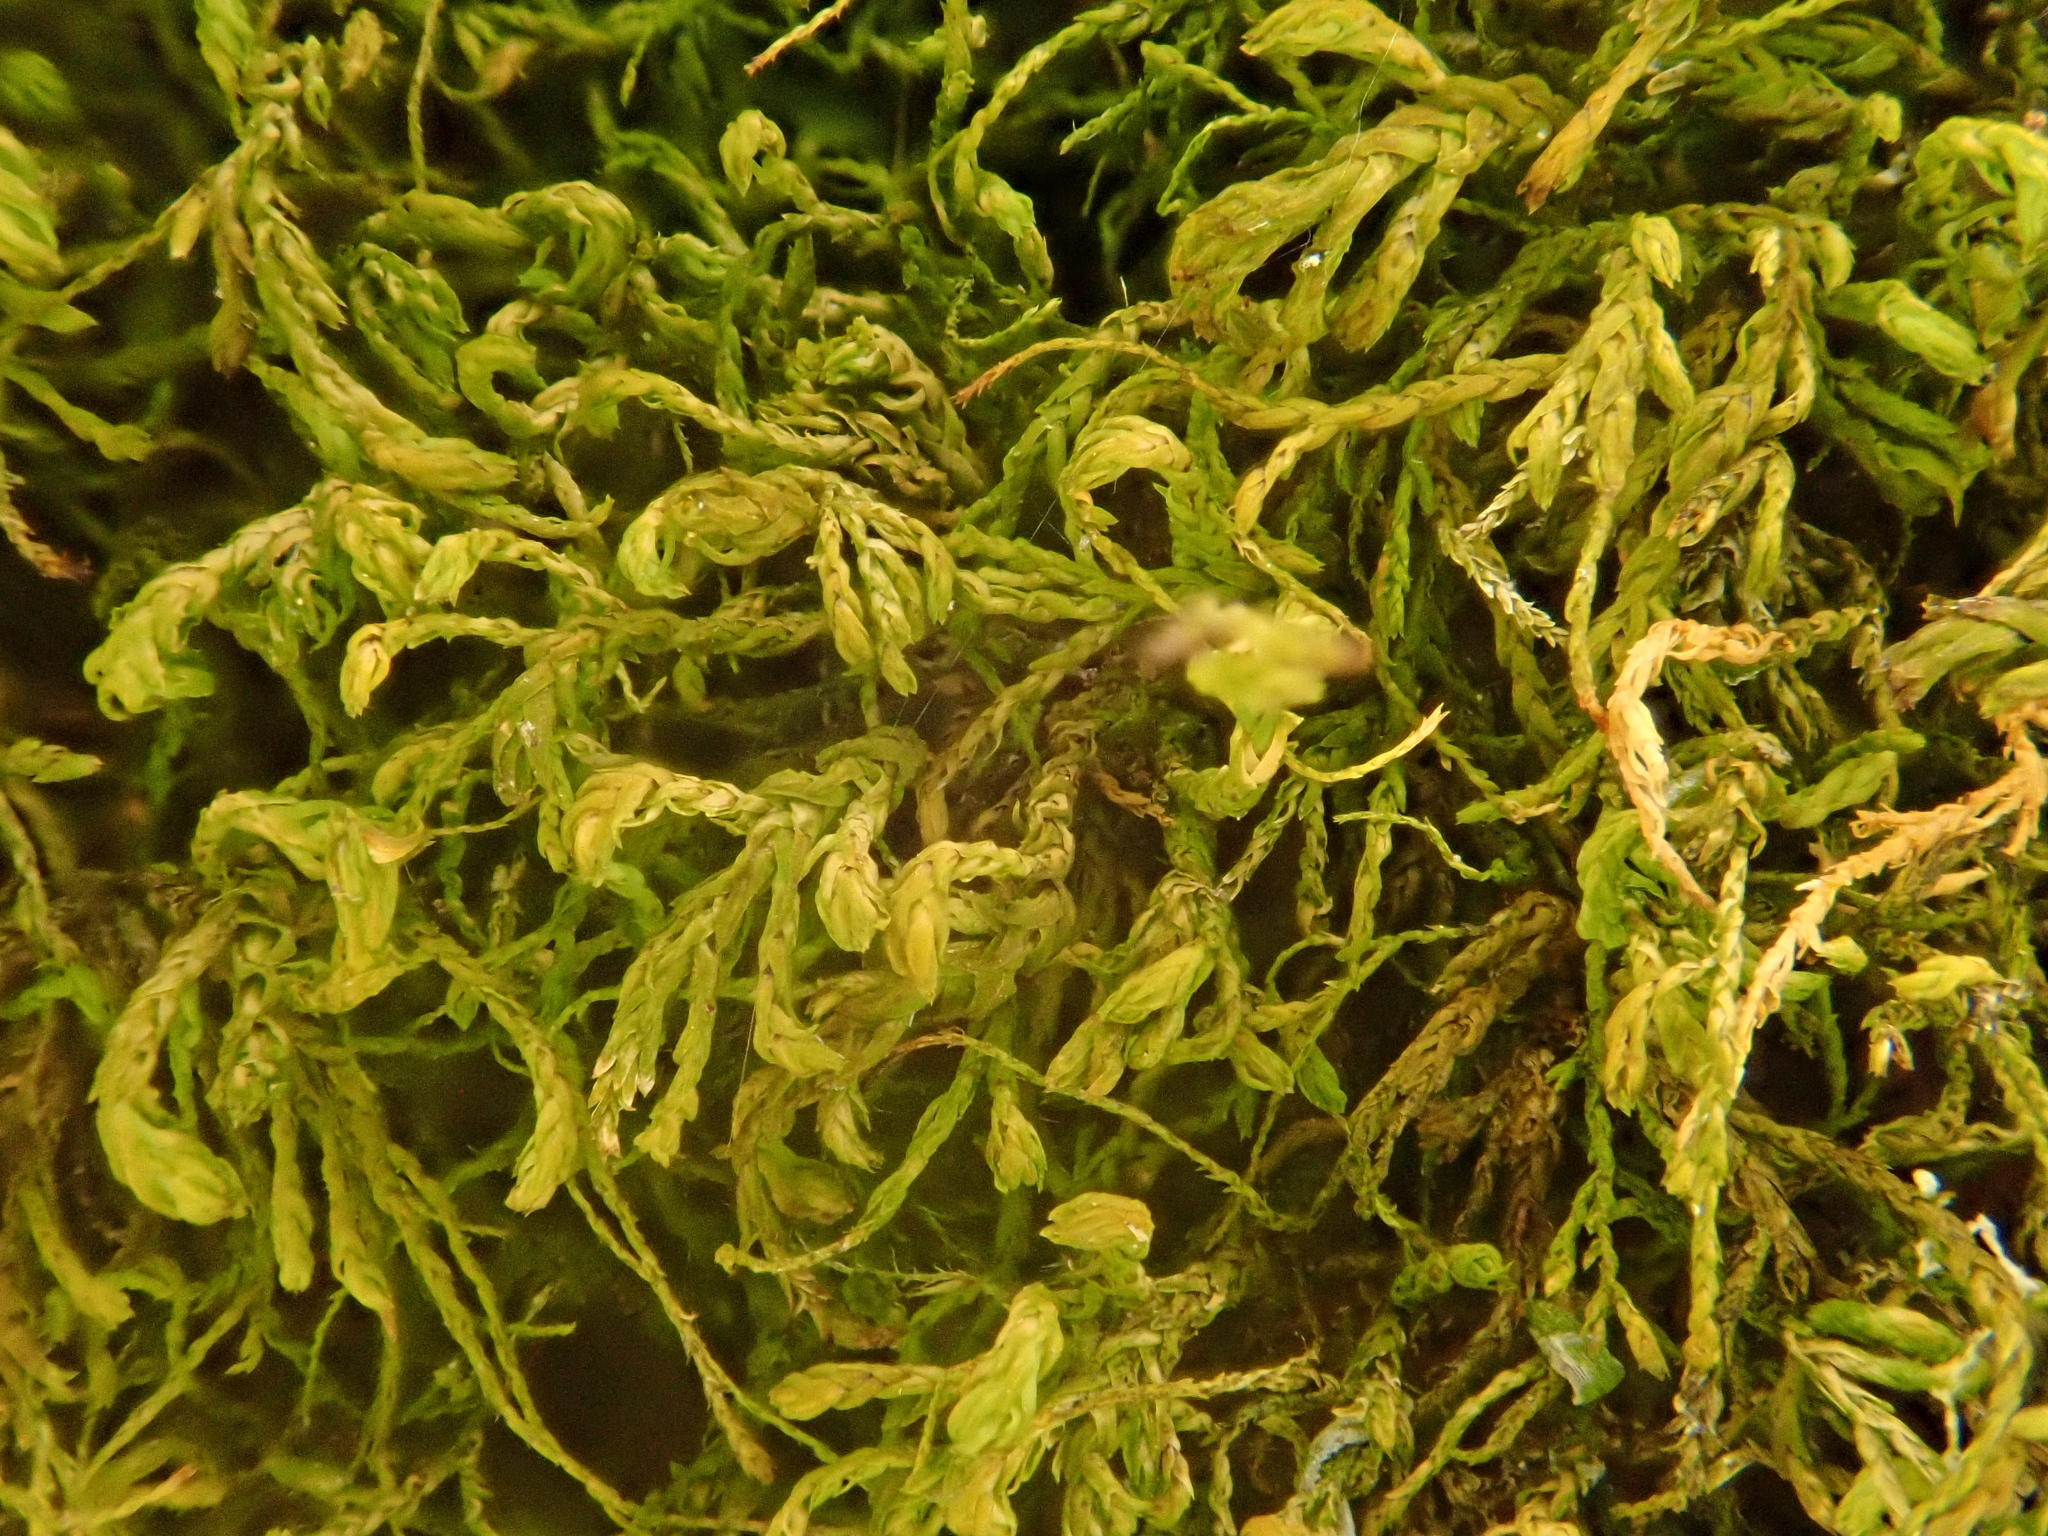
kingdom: Plantae
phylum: Bryophyta
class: Bryopsida
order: Hypnales
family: Neckeraceae
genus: Pseudanomodon
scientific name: Pseudanomodon attenuatus
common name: Tree-skirt moss
